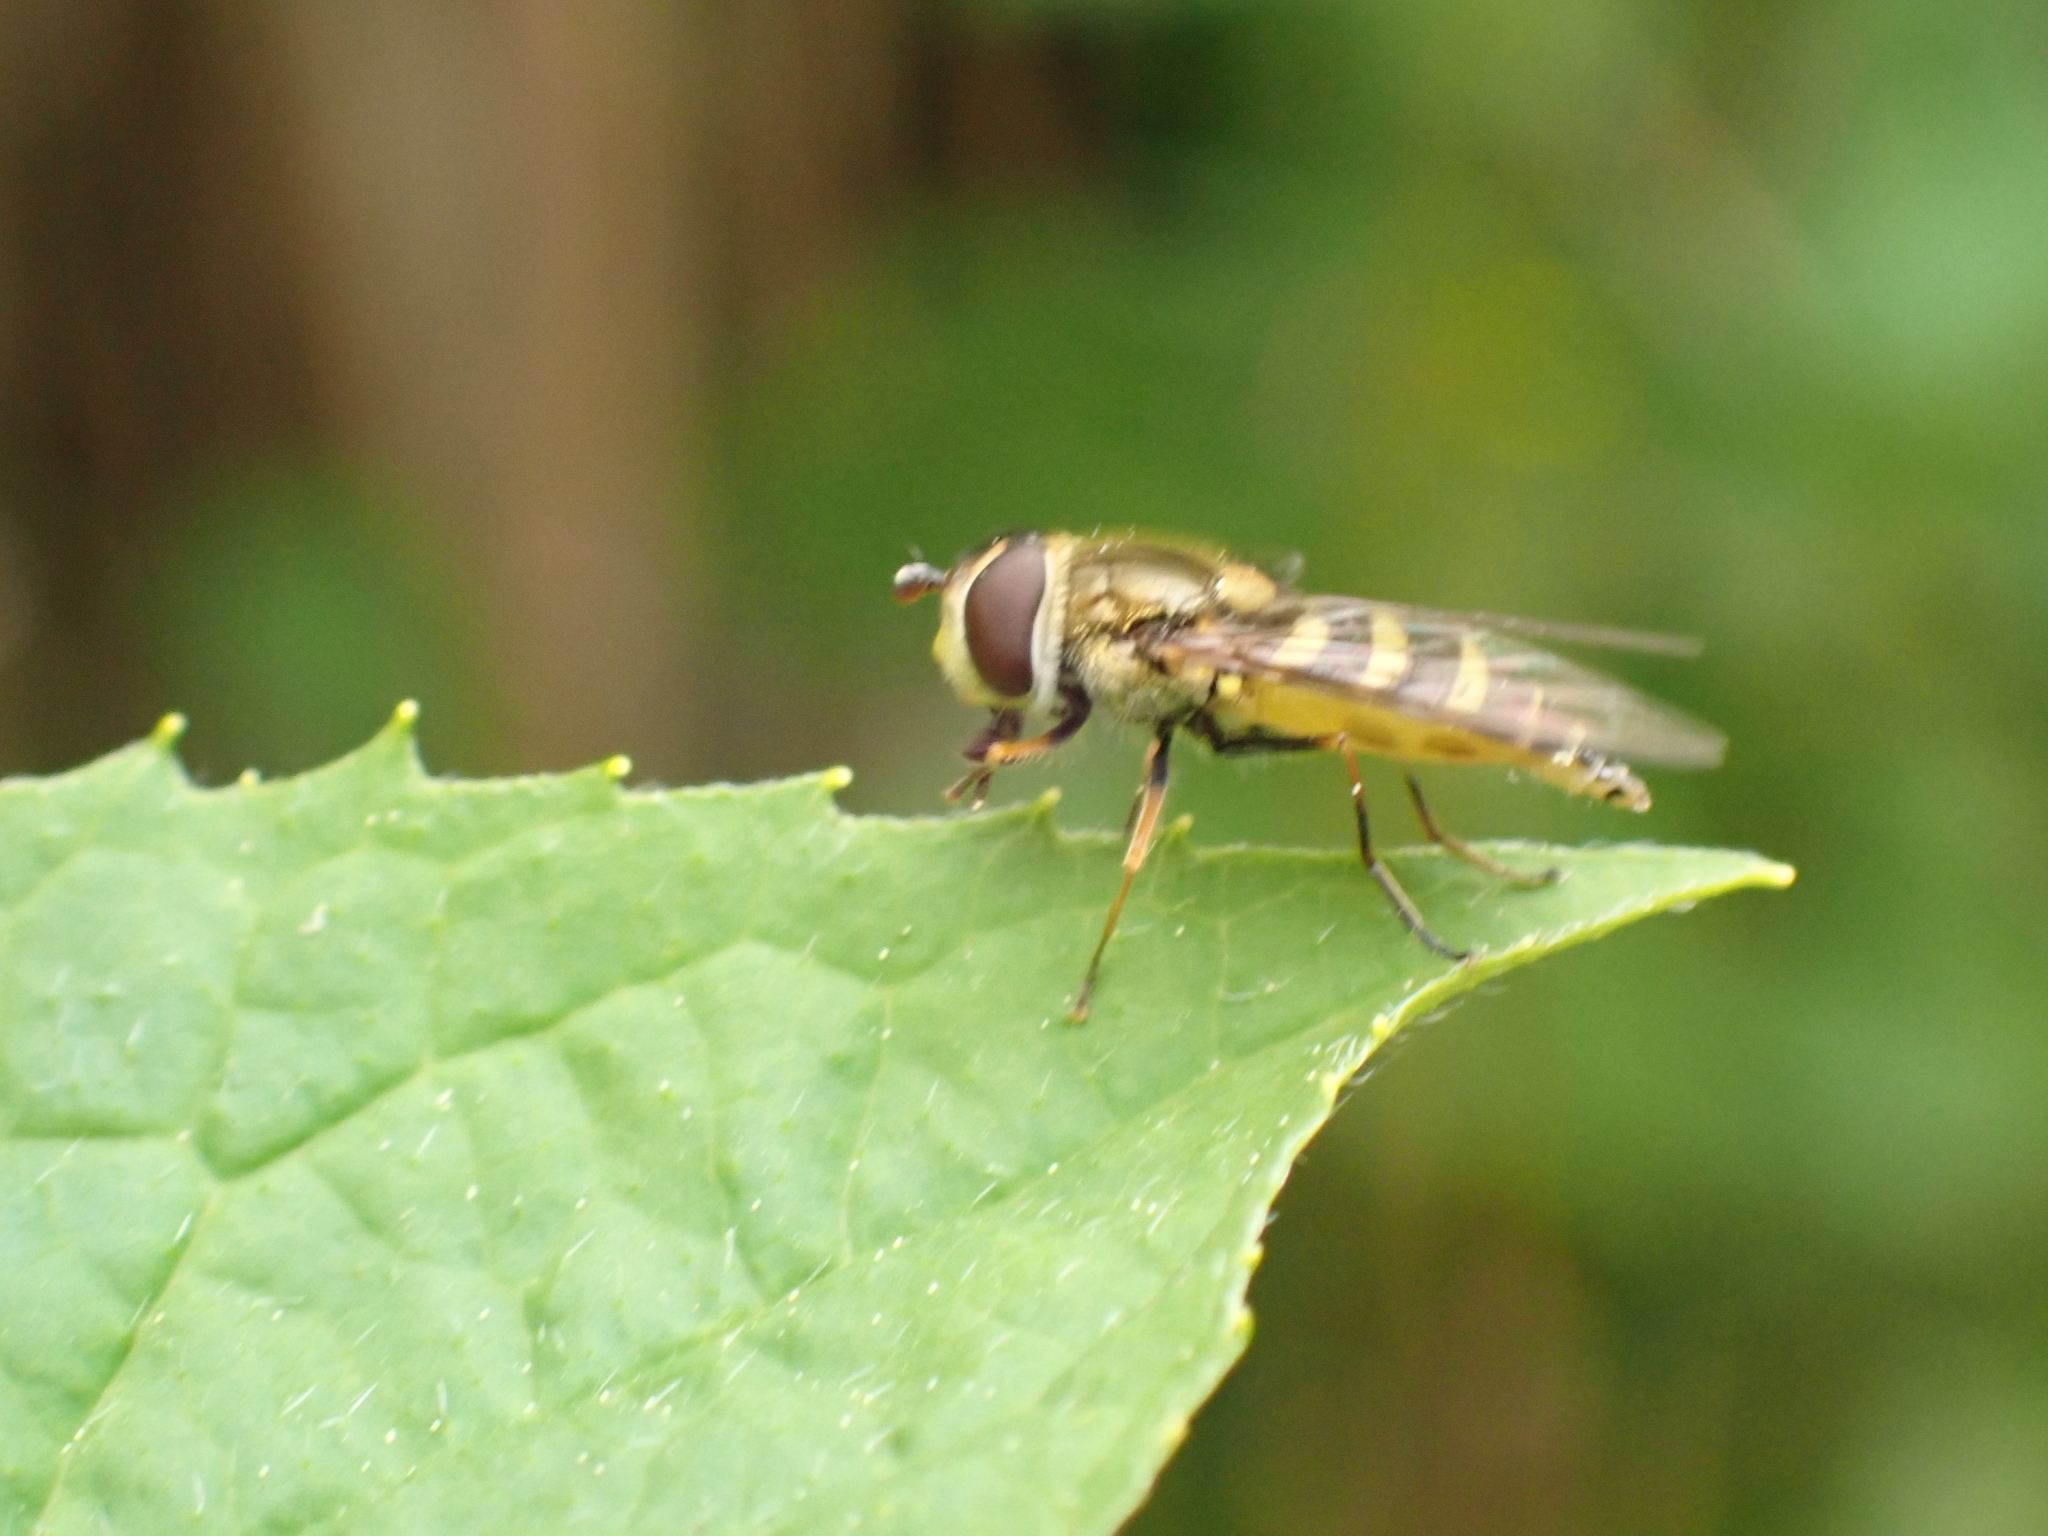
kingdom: Animalia
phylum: Arthropoda
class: Insecta
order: Diptera
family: Syrphidae
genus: Syrphus
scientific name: Syrphus
